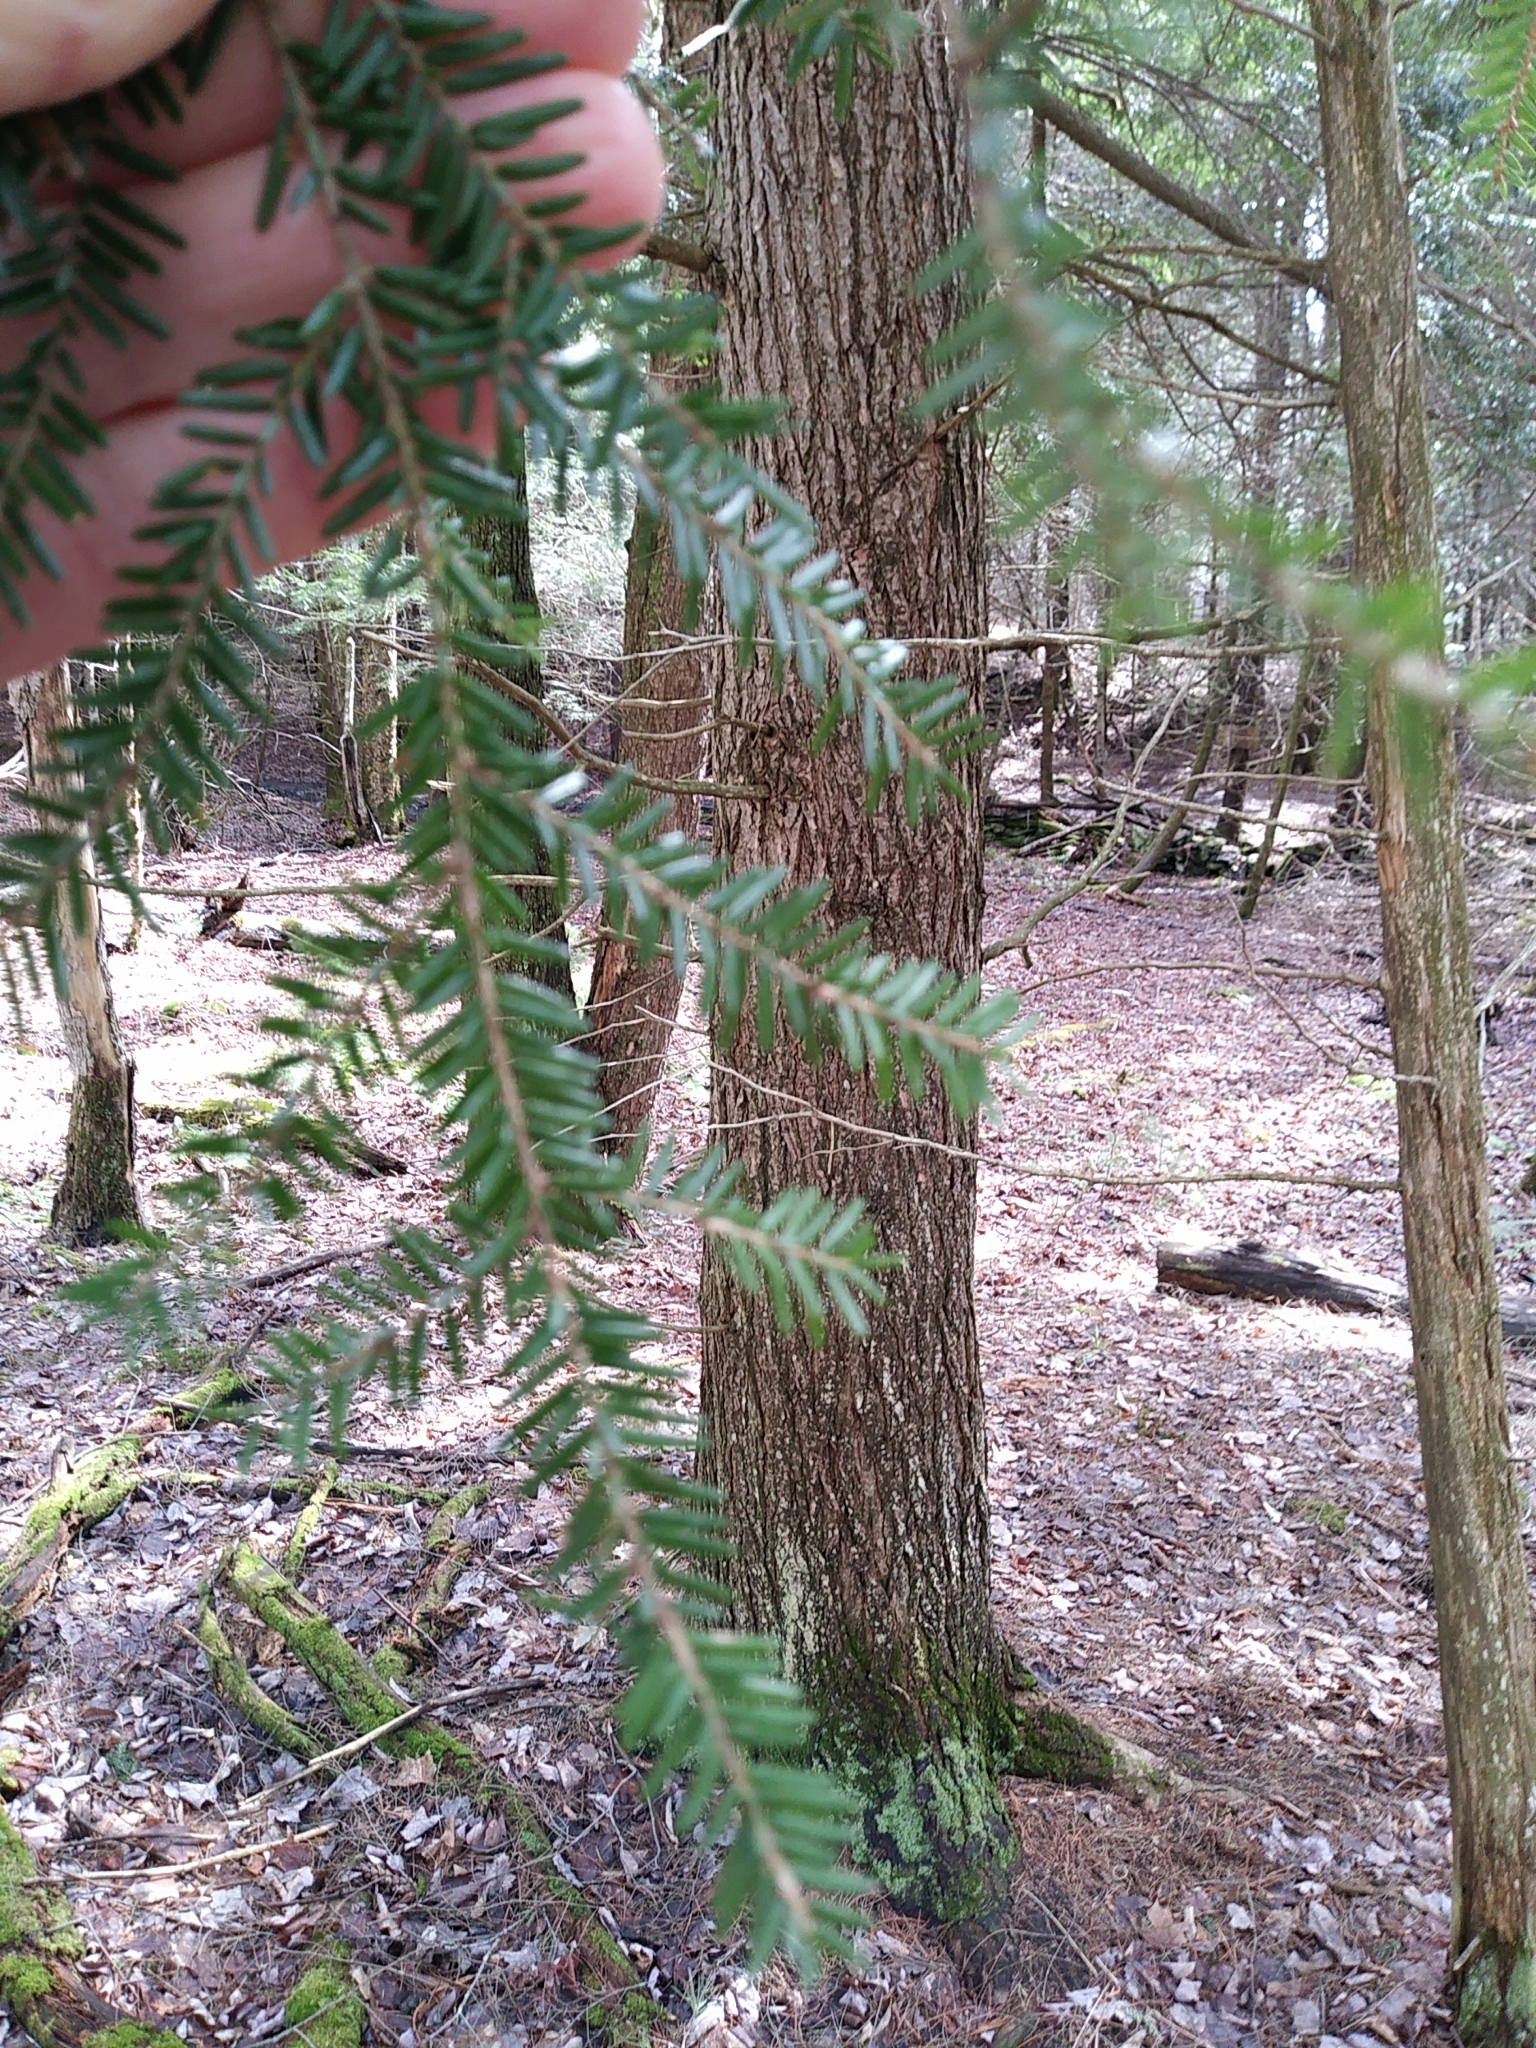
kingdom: Plantae
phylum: Tracheophyta
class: Pinopsida
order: Pinales
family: Pinaceae
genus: Tsuga
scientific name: Tsuga canadensis
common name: Eastern hemlock
